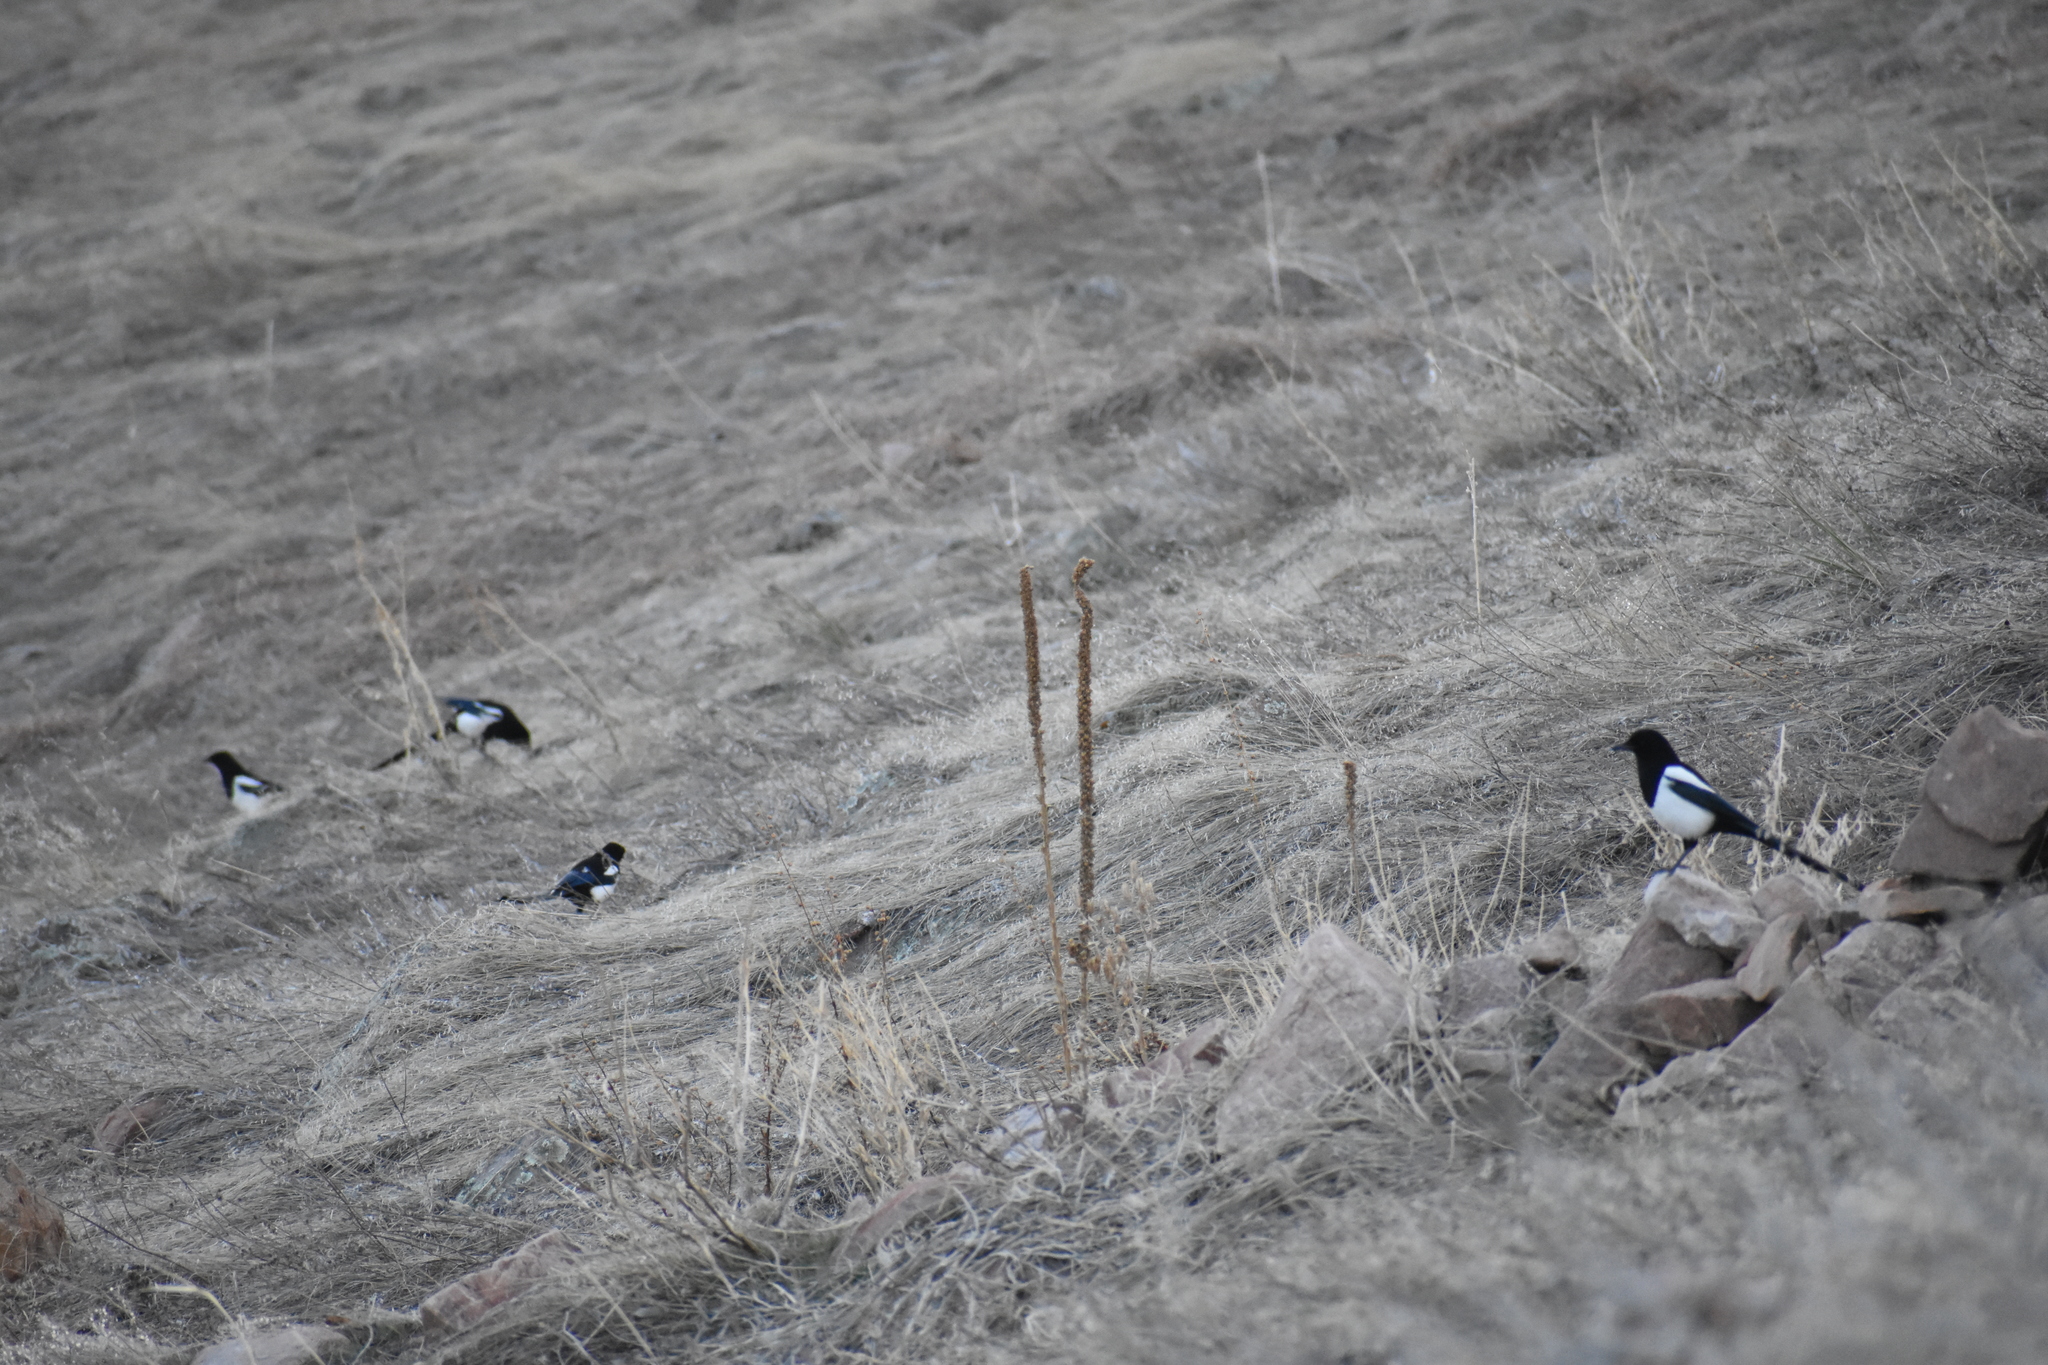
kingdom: Animalia
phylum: Chordata
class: Aves
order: Passeriformes
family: Corvidae
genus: Pica
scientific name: Pica hudsonia
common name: Black-billed magpie
